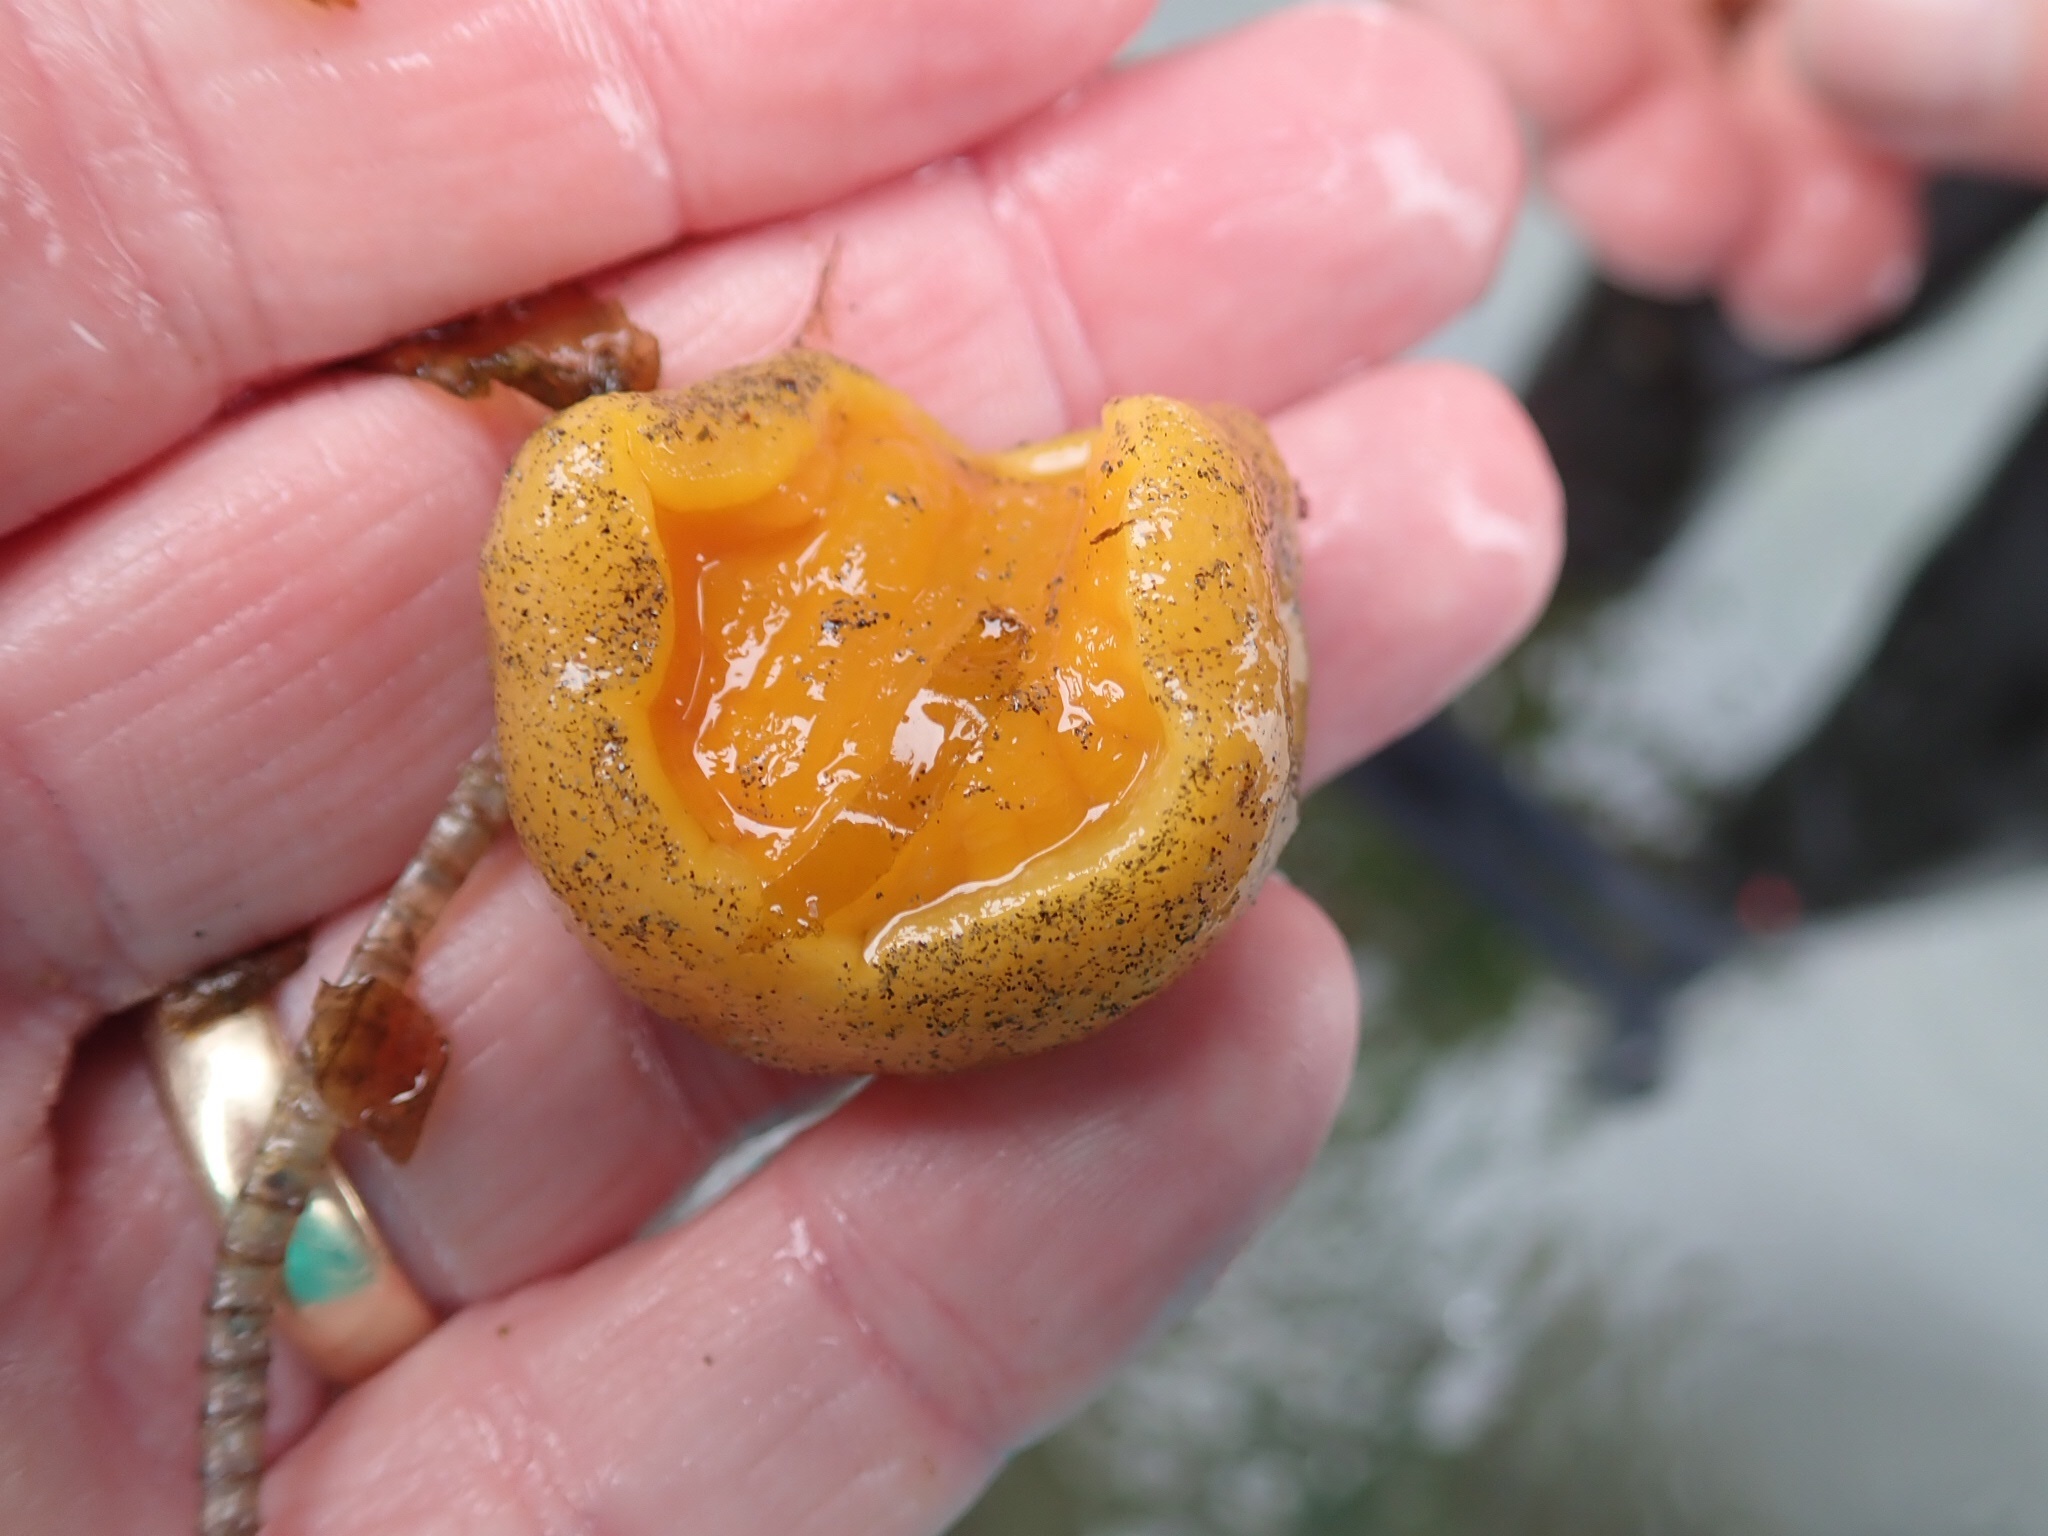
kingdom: Animalia
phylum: Mollusca
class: Gastropoda
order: Nudibranchia
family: Dorididae
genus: Doris
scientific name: Doris montereyensis
